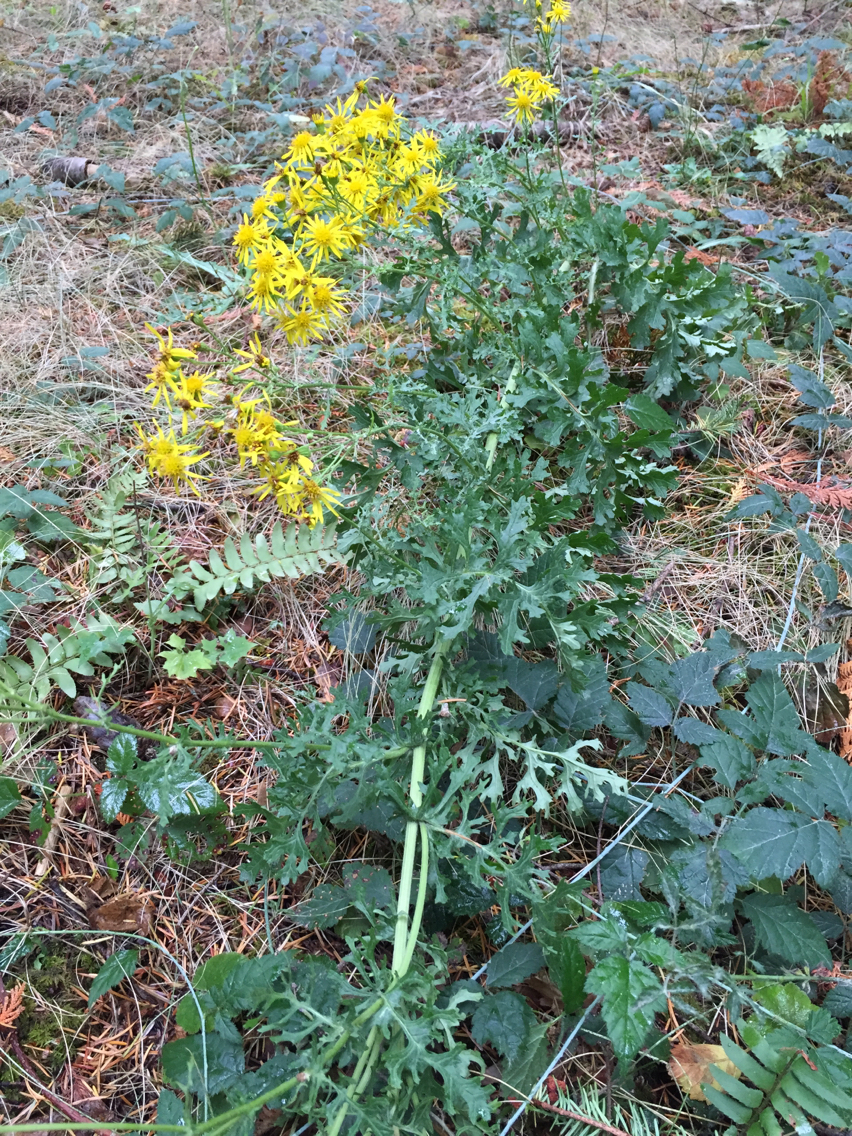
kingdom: Plantae
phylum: Tracheophyta
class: Magnoliopsida
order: Asterales
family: Asteraceae
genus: Jacobaea
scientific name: Jacobaea vulgaris
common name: Stinking willie
